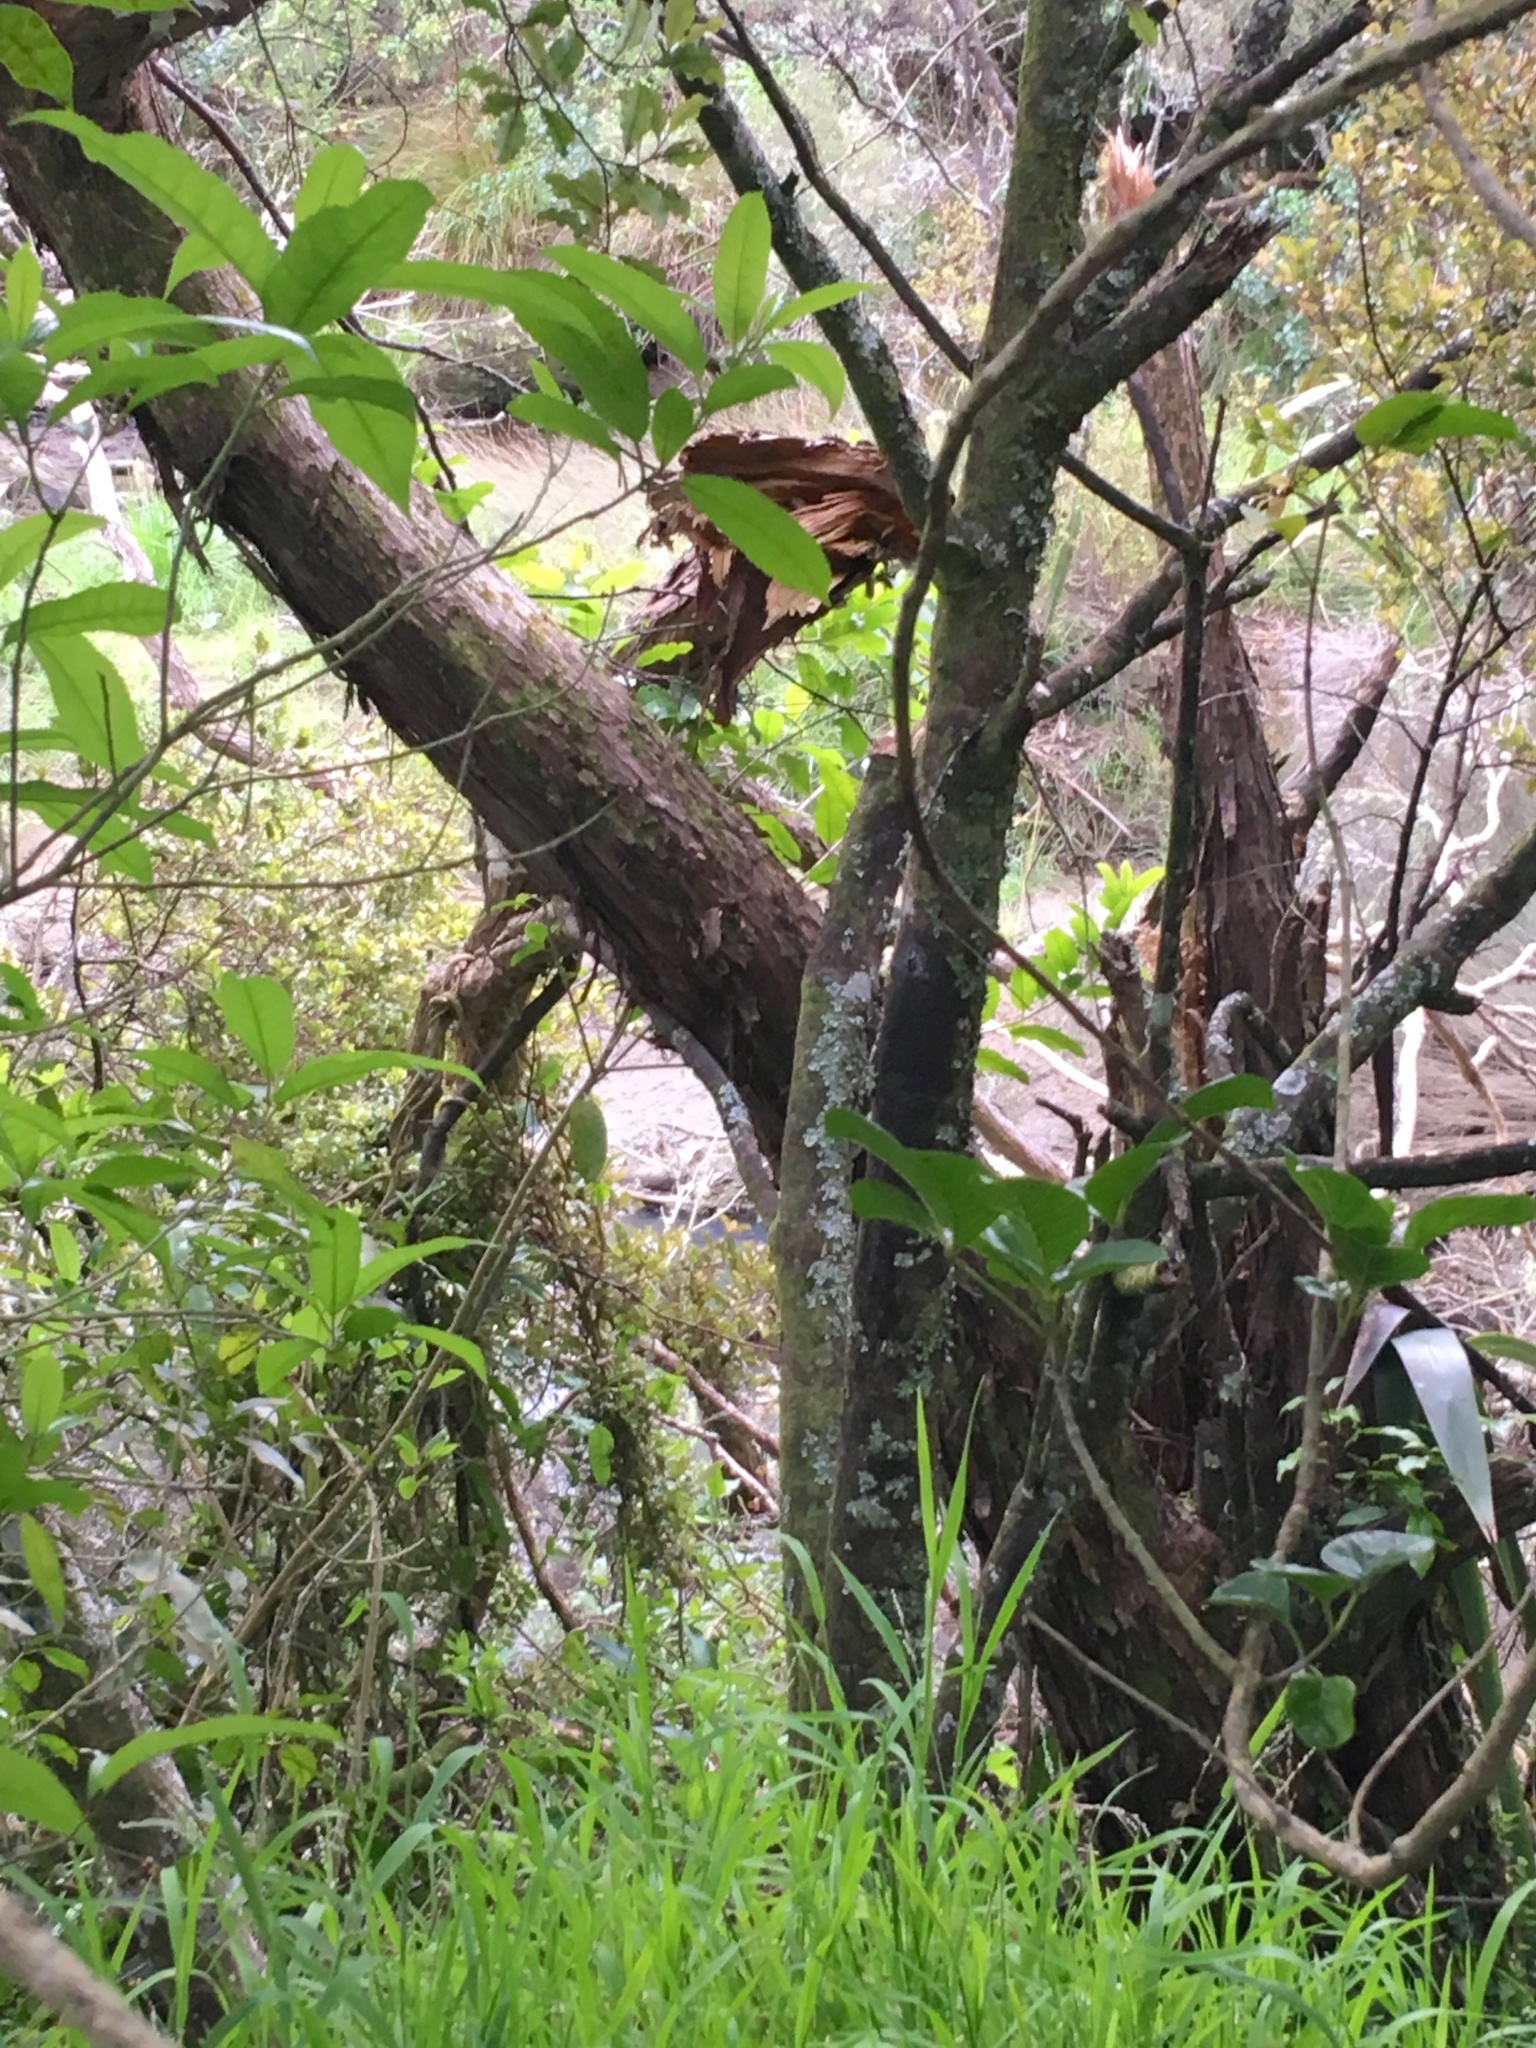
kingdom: Plantae
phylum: Tracheophyta
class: Liliopsida
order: Poales
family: Poaceae
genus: Ehrharta
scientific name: Ehrharta erecta
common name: Panic veldtgrass
